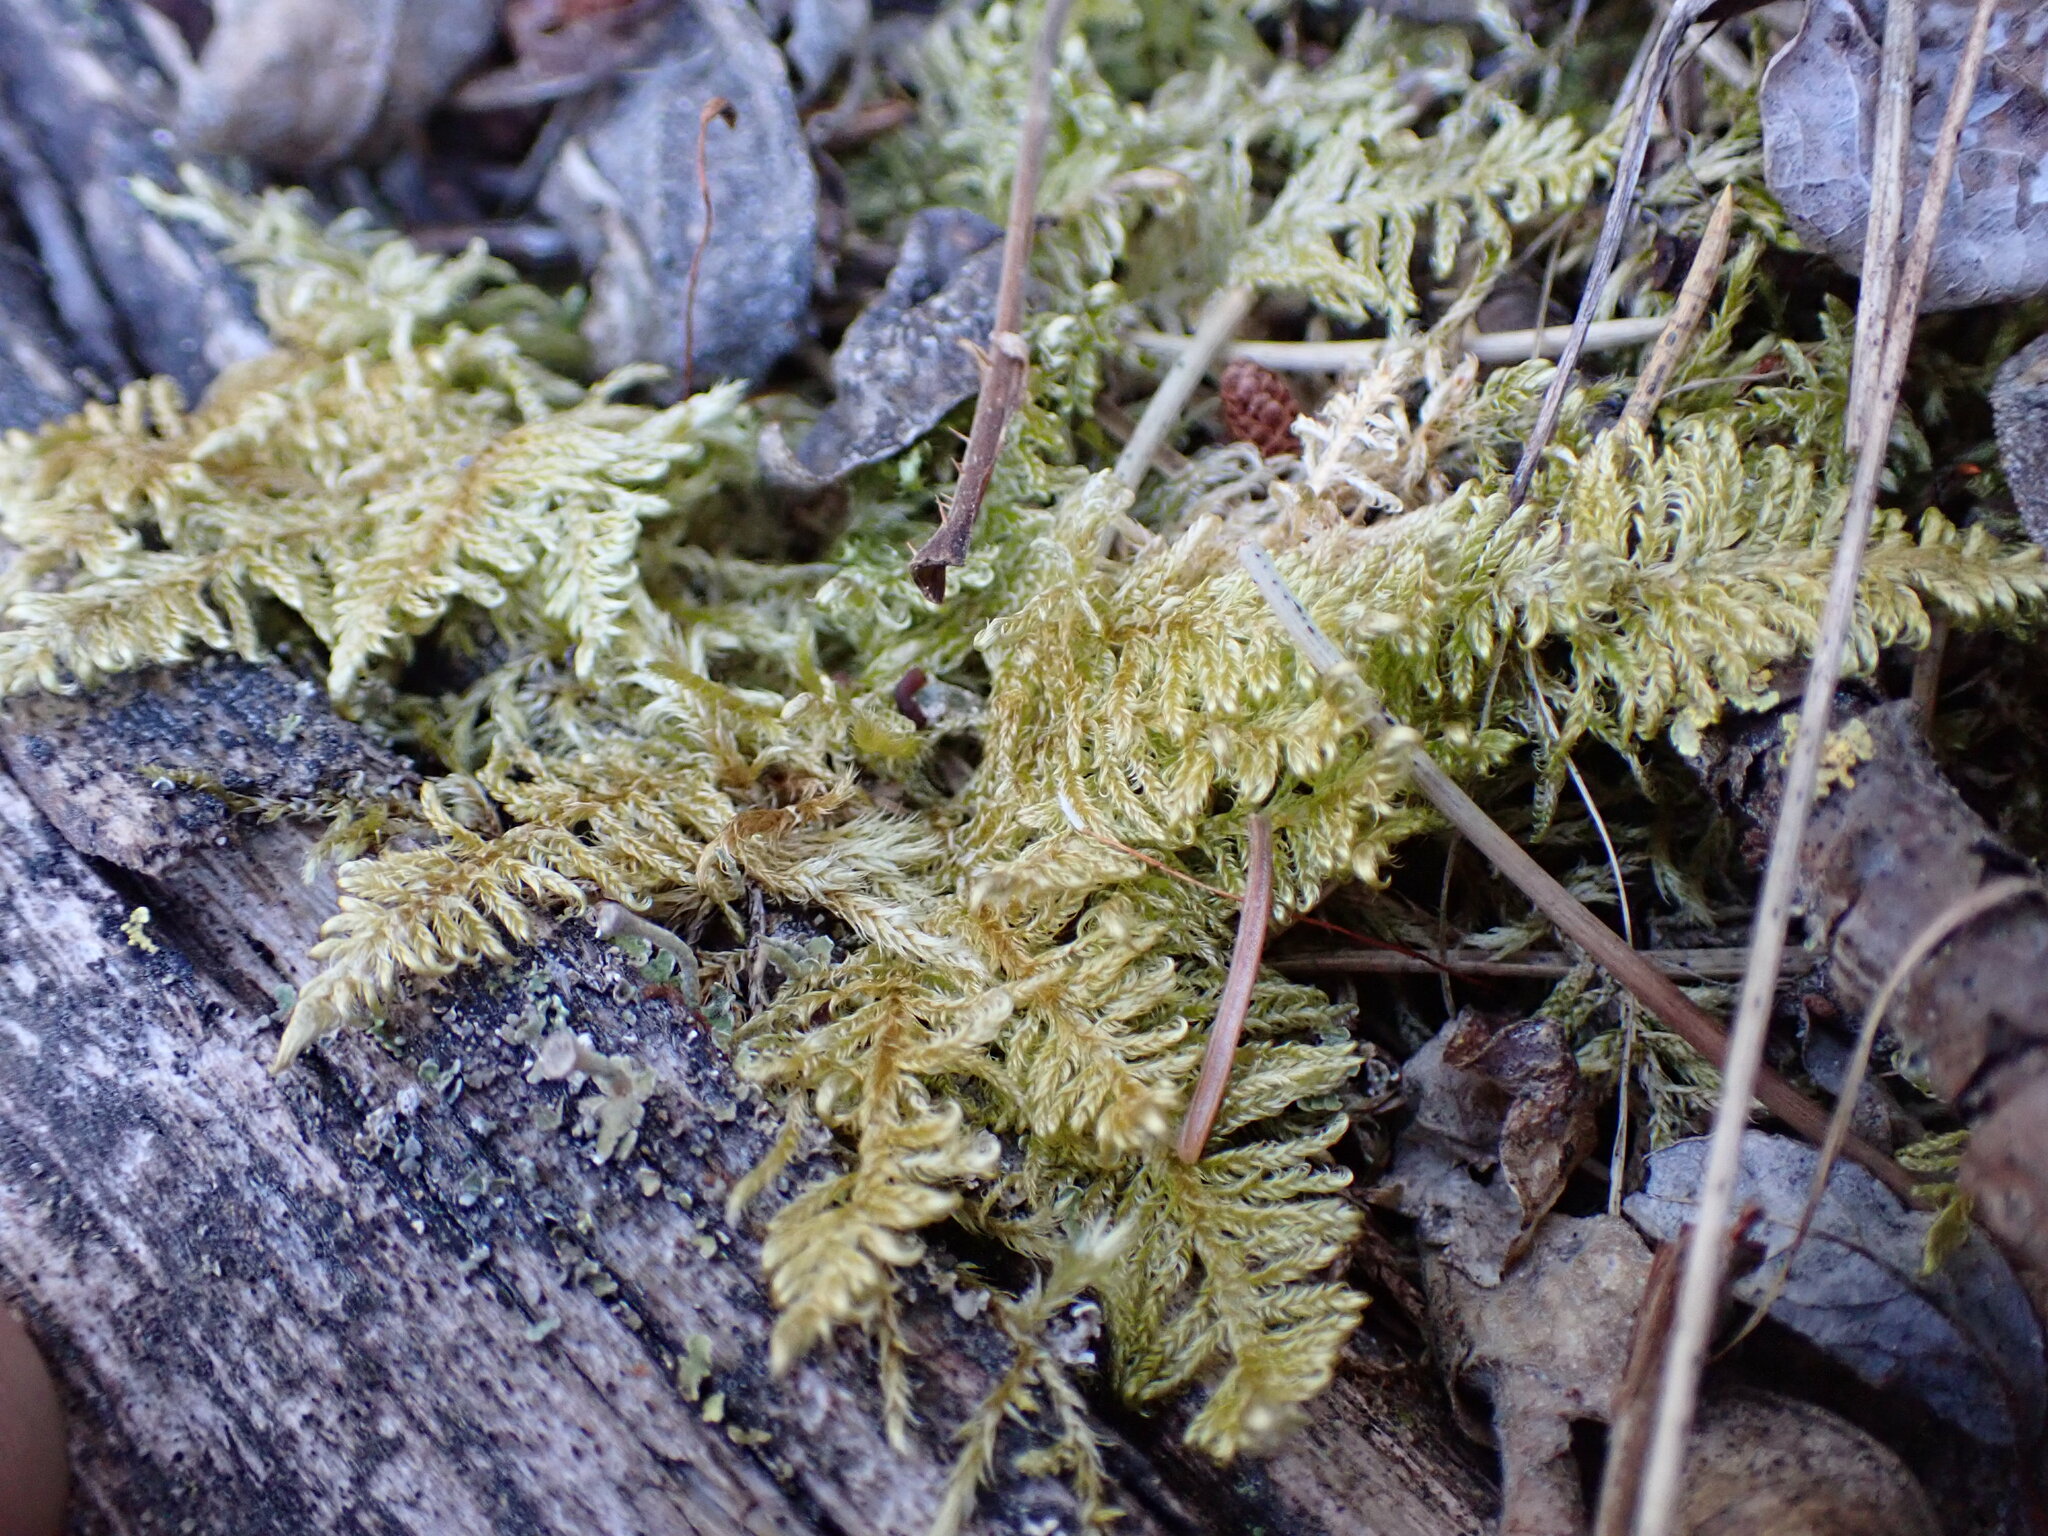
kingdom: Plantae
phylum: Bryophyta
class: Bryopsida
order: Hypnales
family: Pylaisiaceae
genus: Ptilium
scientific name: Ptilium crista-castrensis
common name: Knight's plume moss
